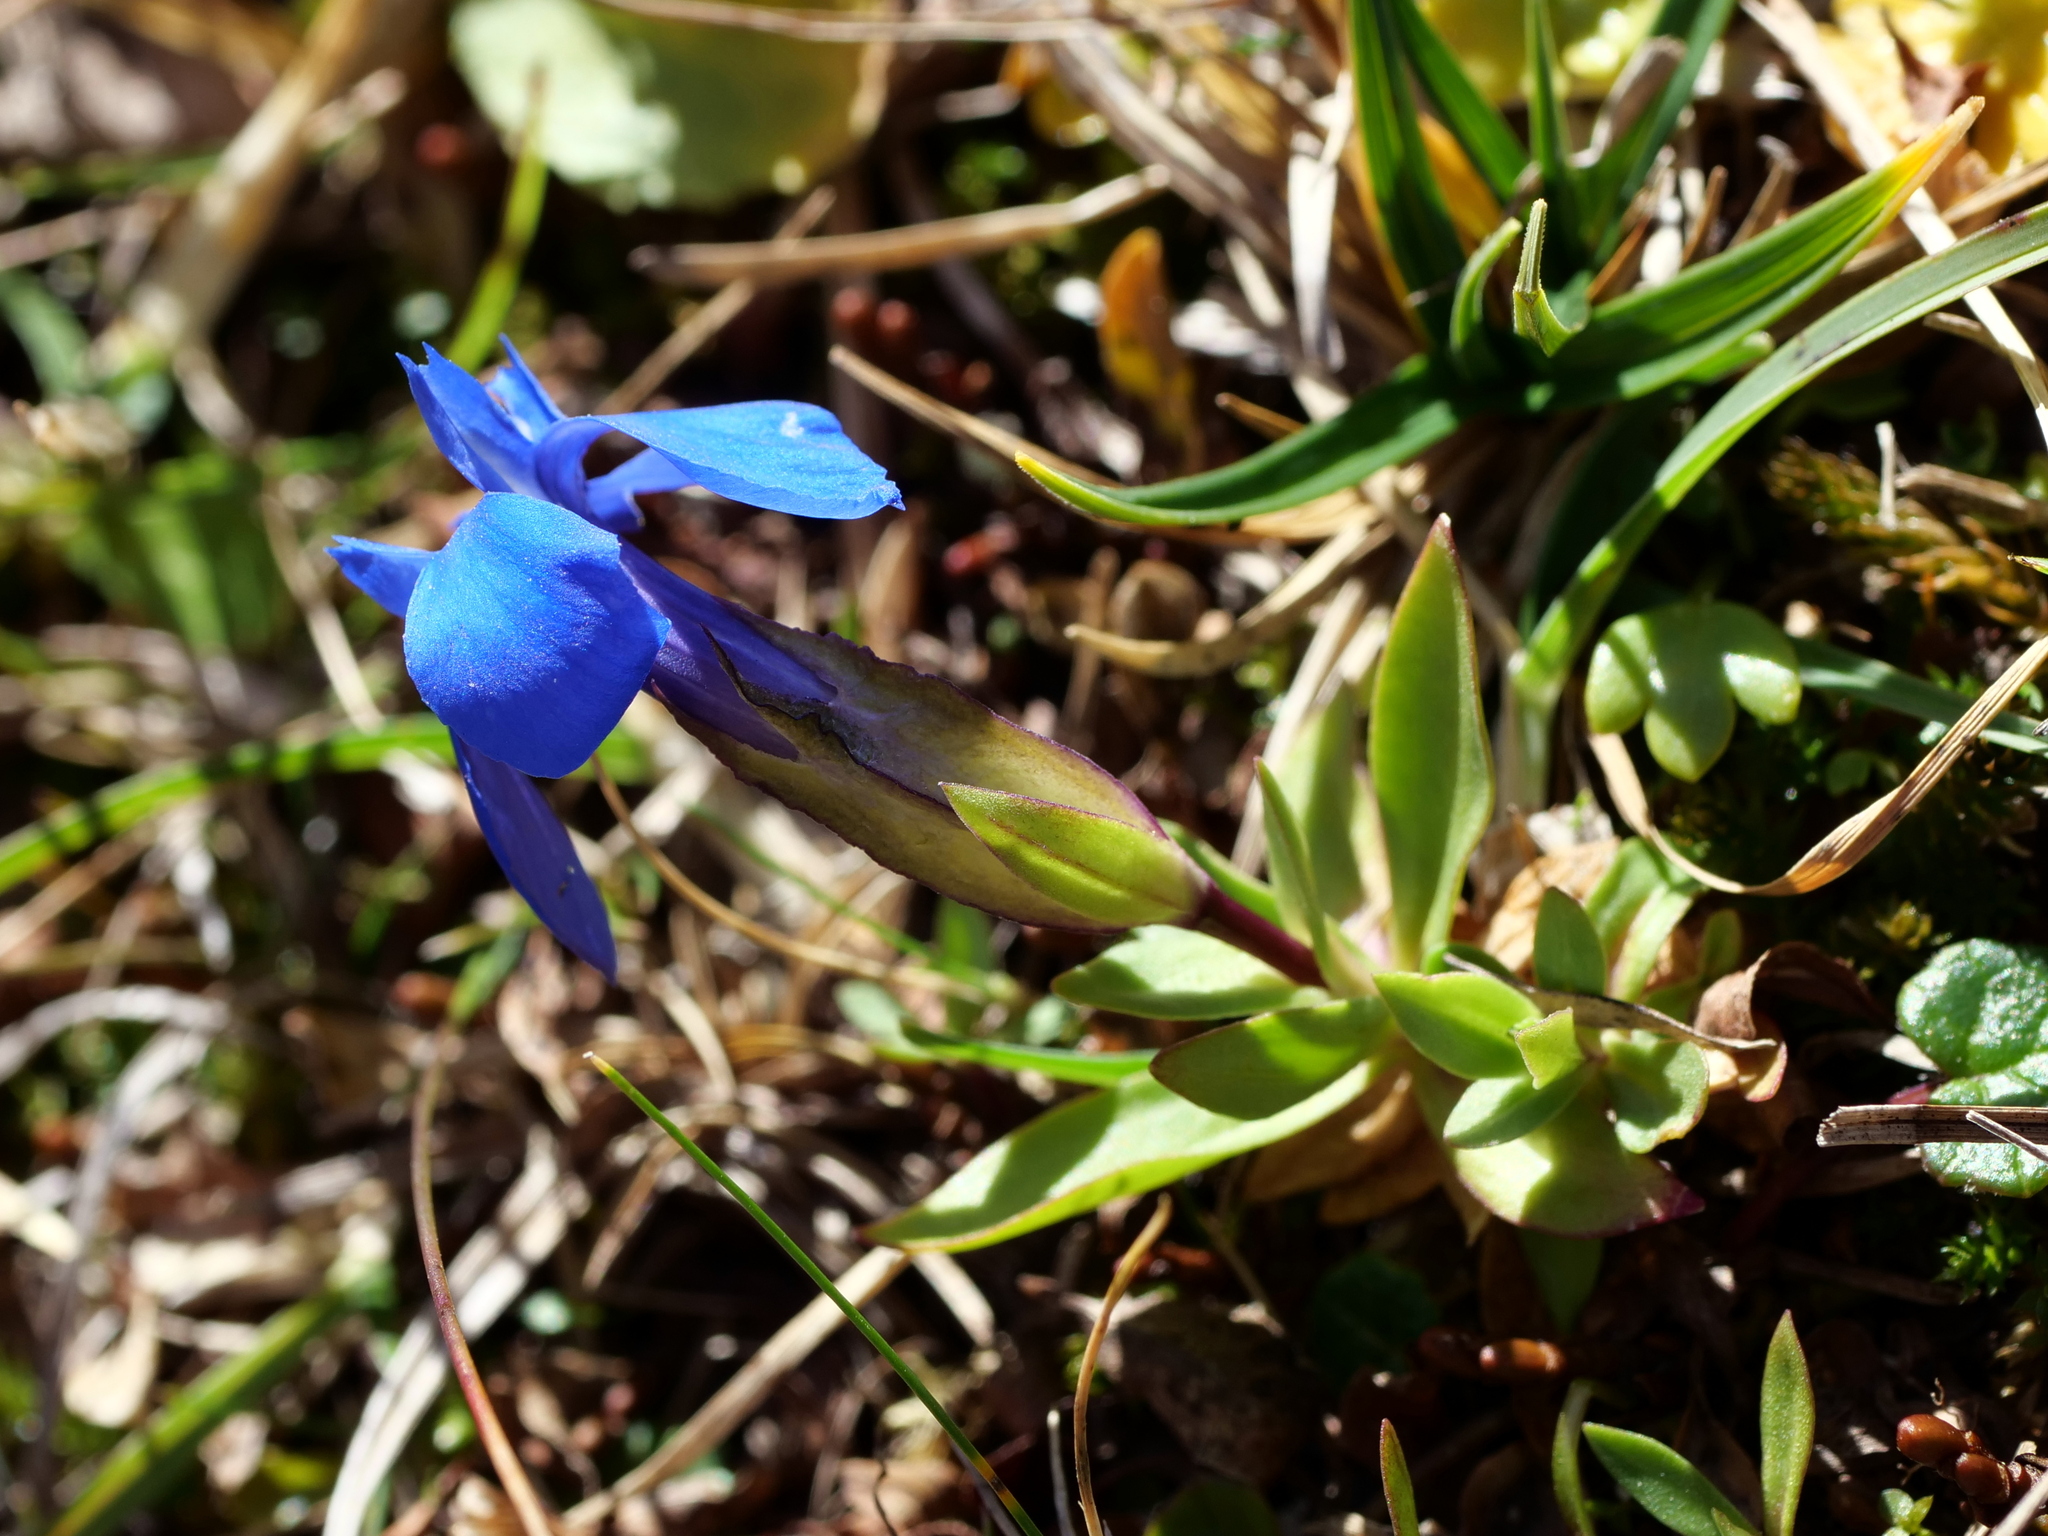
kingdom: Plantae
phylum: Tracheophyta
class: Magnoliopsida
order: Gentianales
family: Gentianaceae
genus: Gentiana
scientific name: Gentiana verna
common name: Spring gentian
